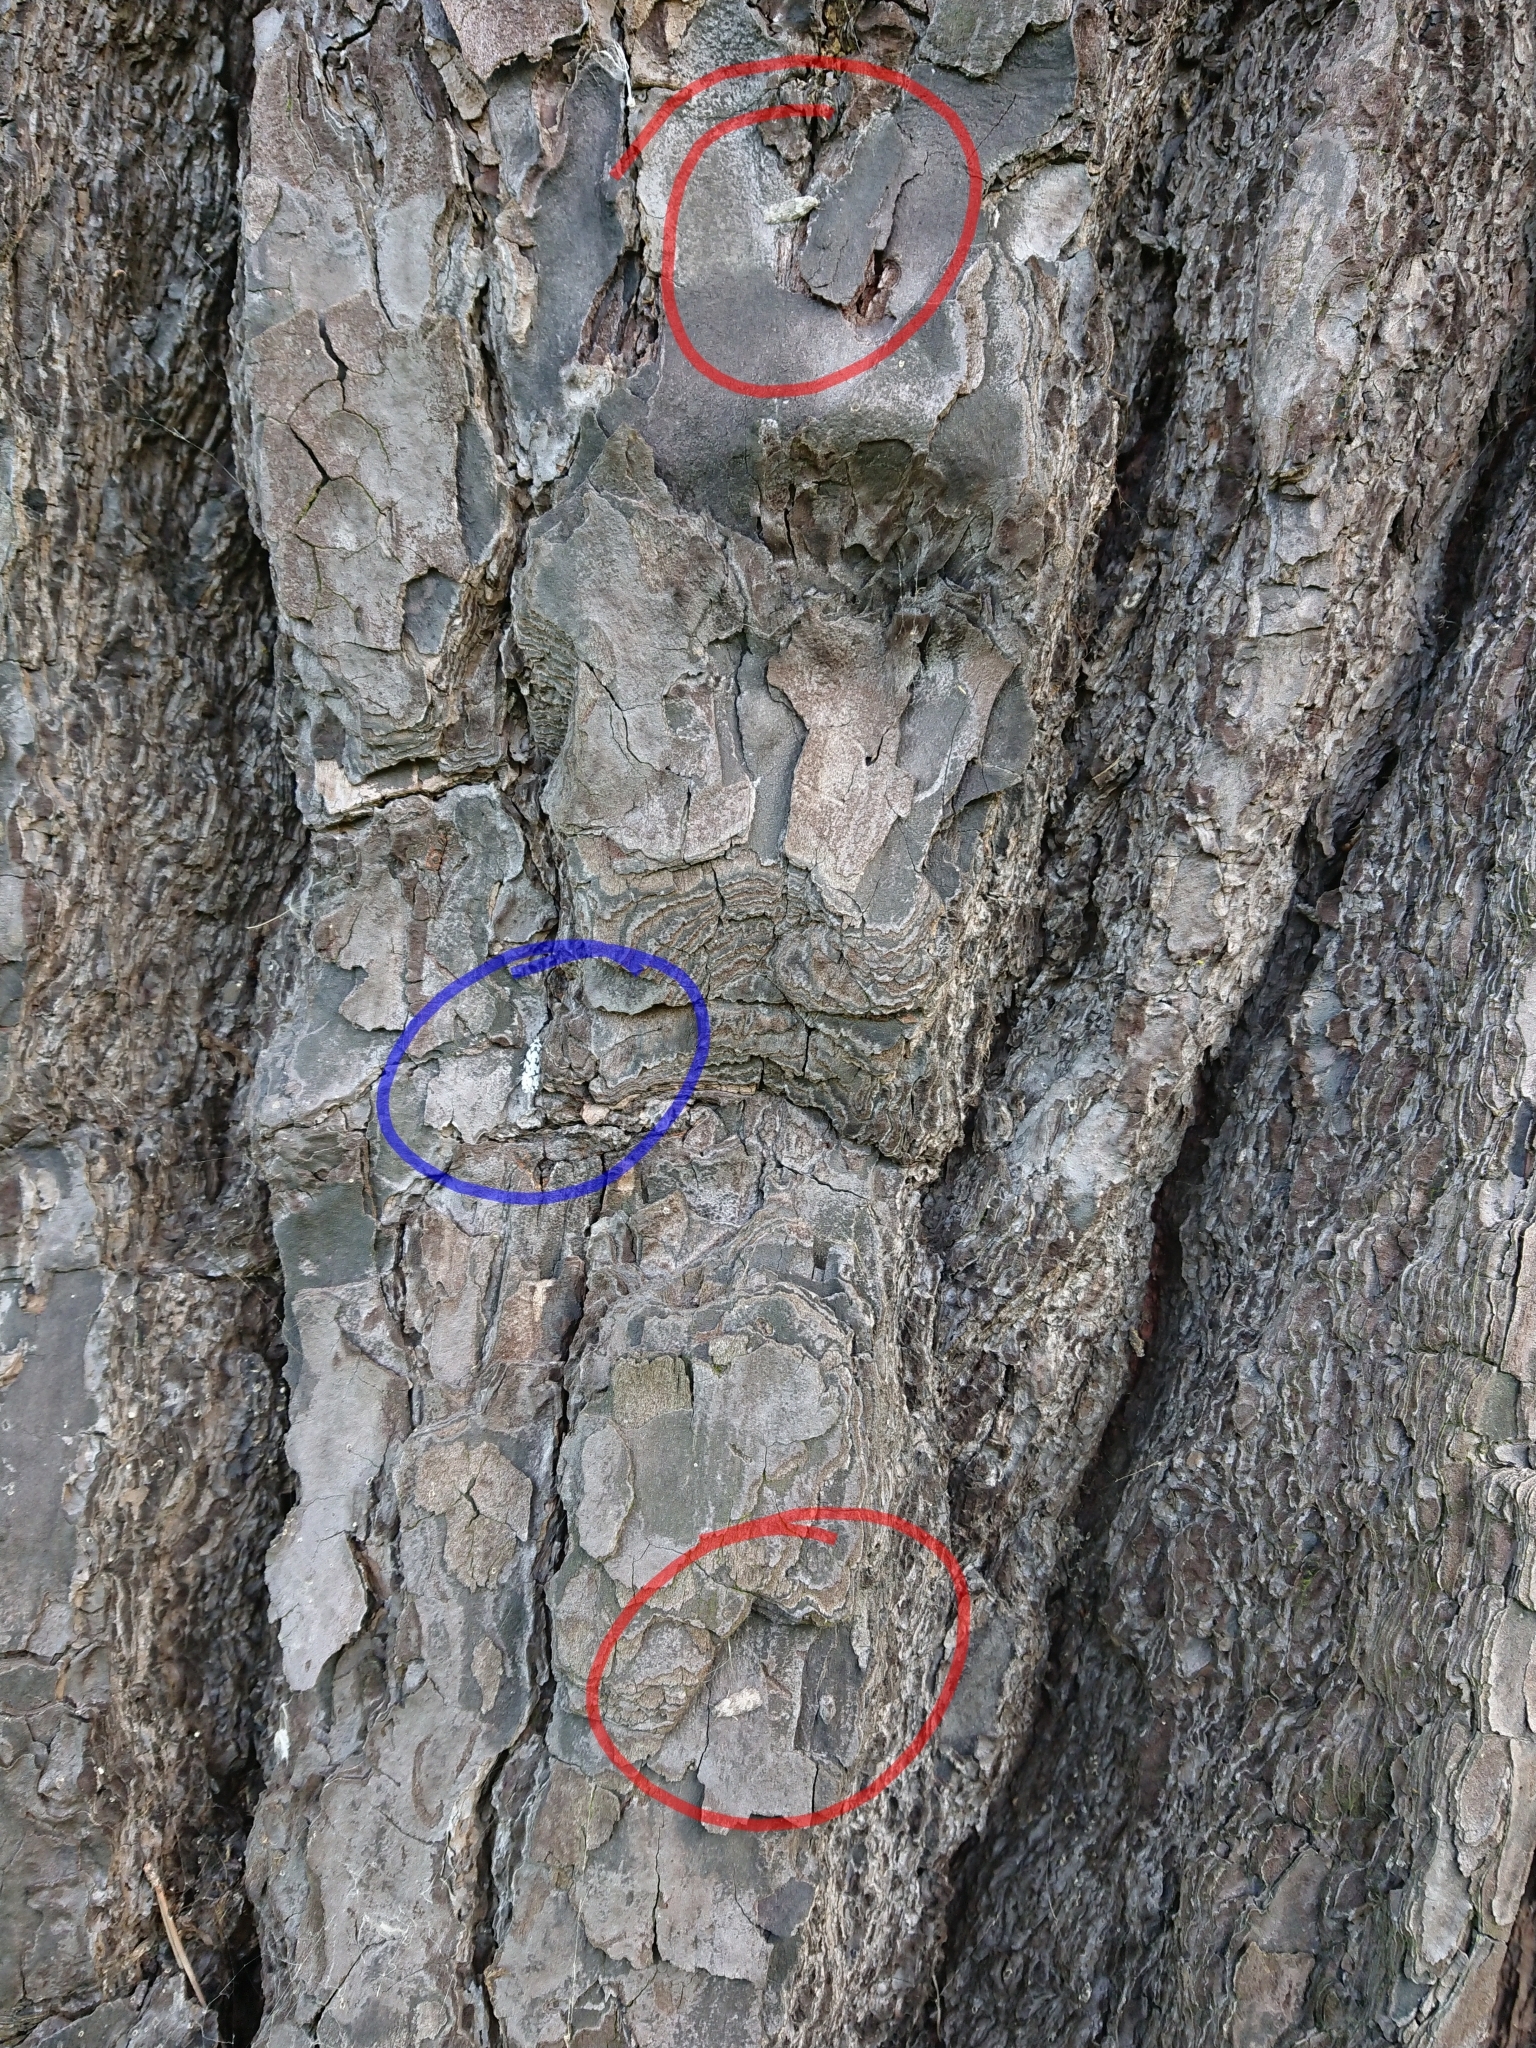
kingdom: Animalia
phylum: Arthropoda
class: Insecta
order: Lepidoptera
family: Oecophoridae
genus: Izatha
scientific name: Izatha katadiktya
